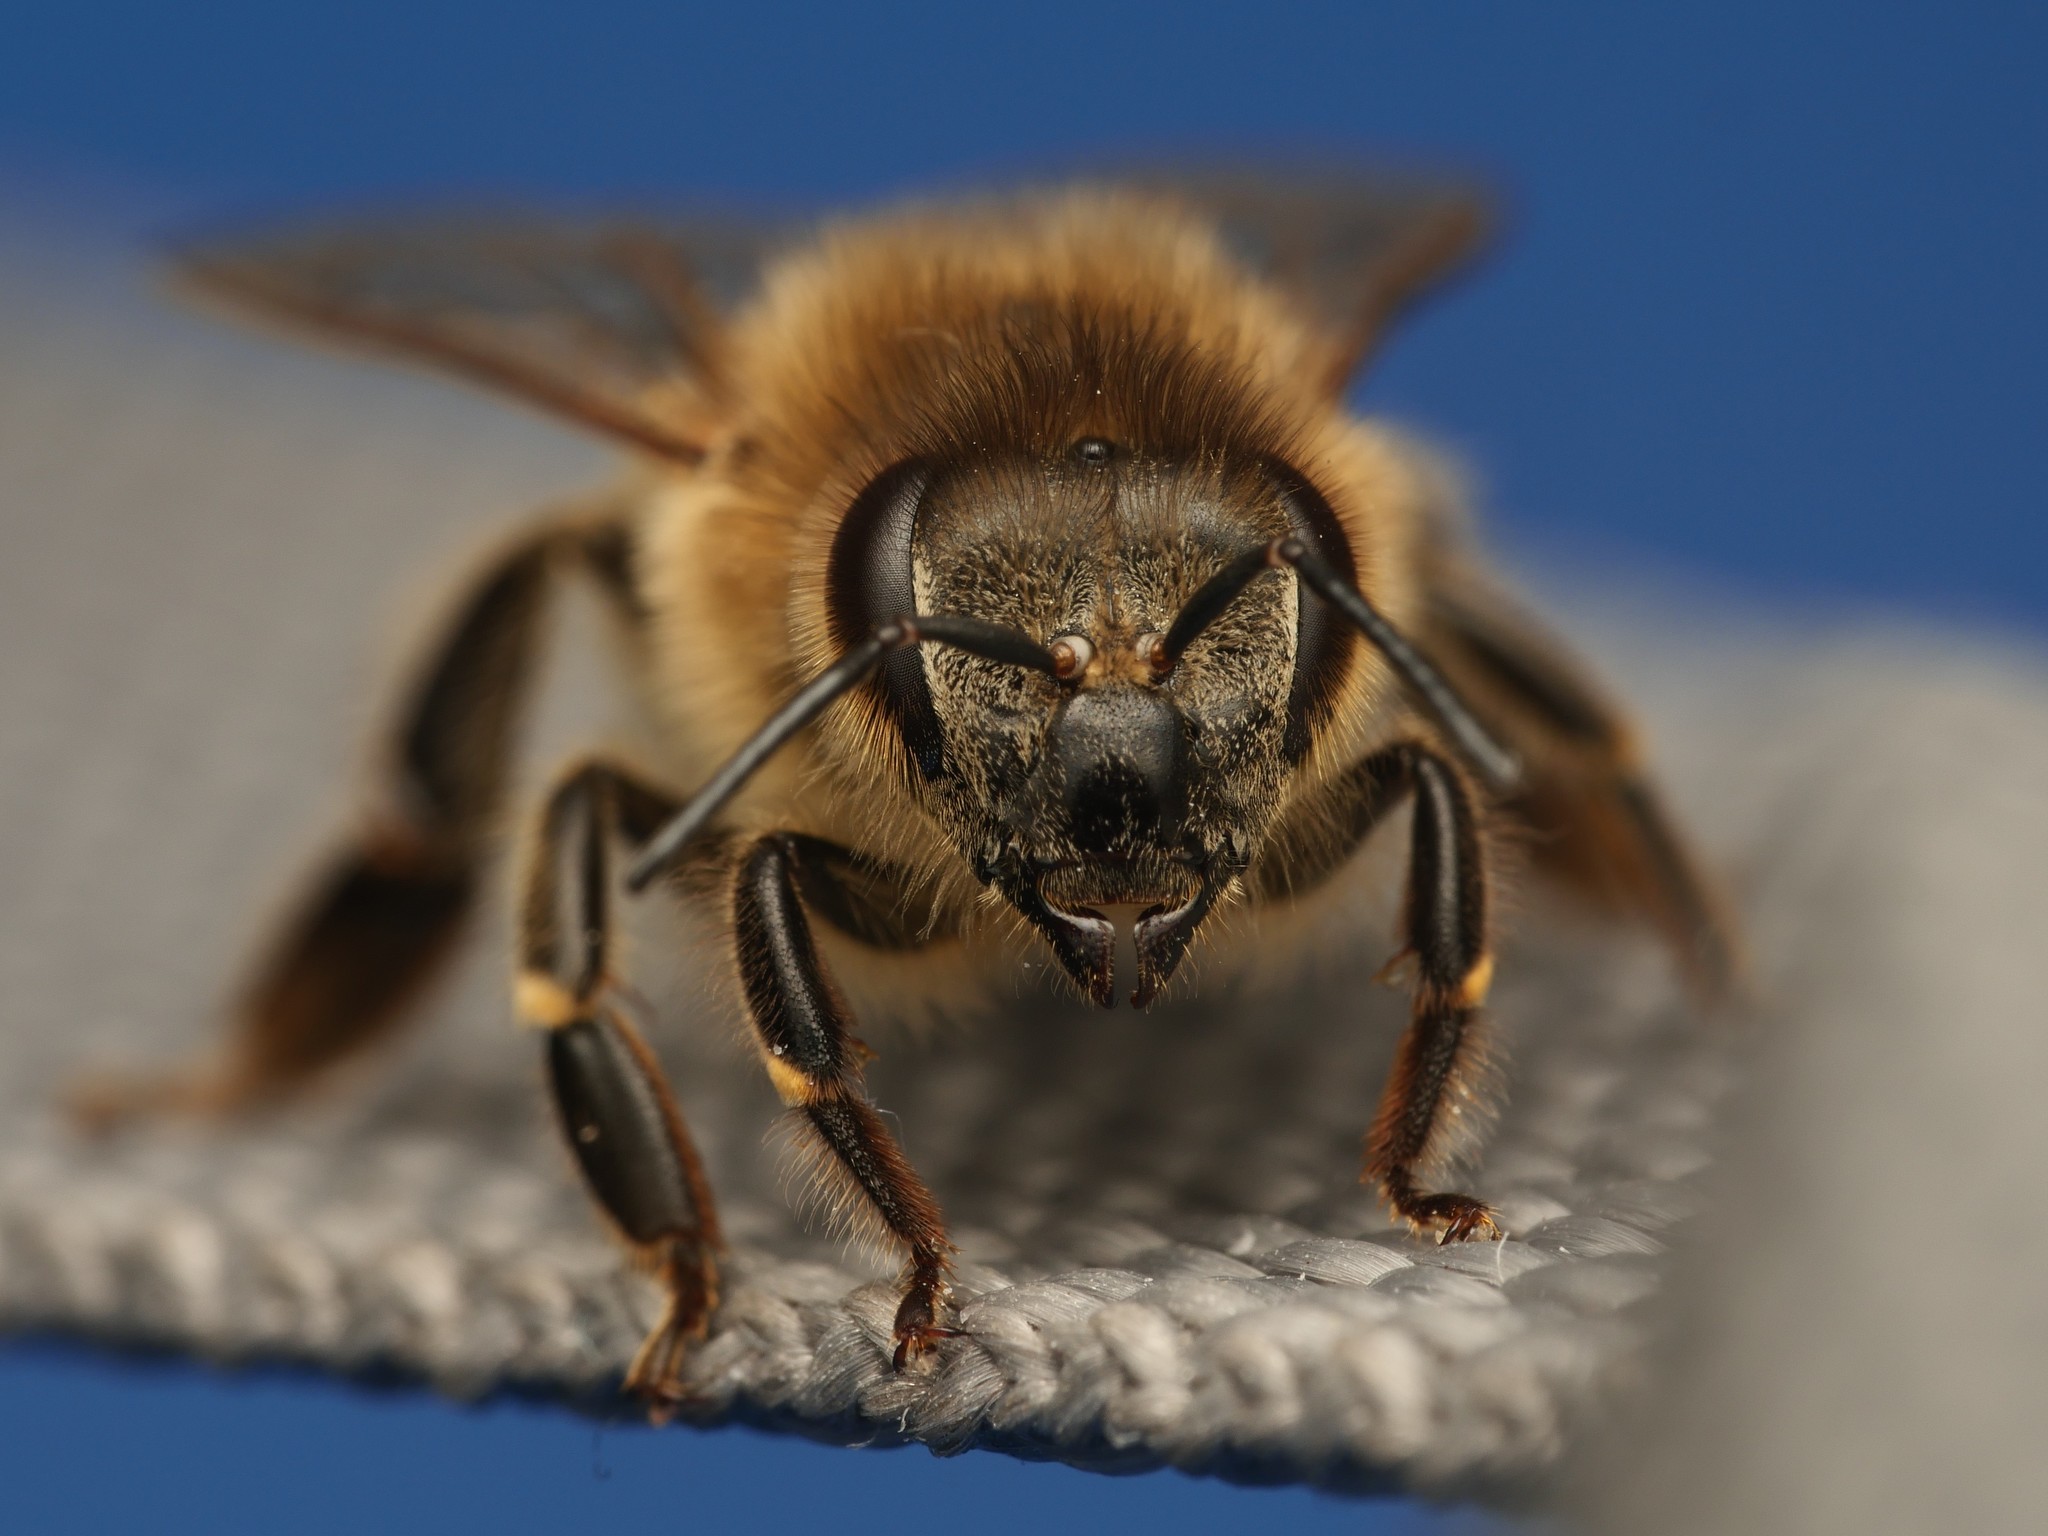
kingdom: Animalia
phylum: Arthropoda
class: Insecta
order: Hymenoptera
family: Apidae
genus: Apis
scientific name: Apis mellifera
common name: Honey bee
